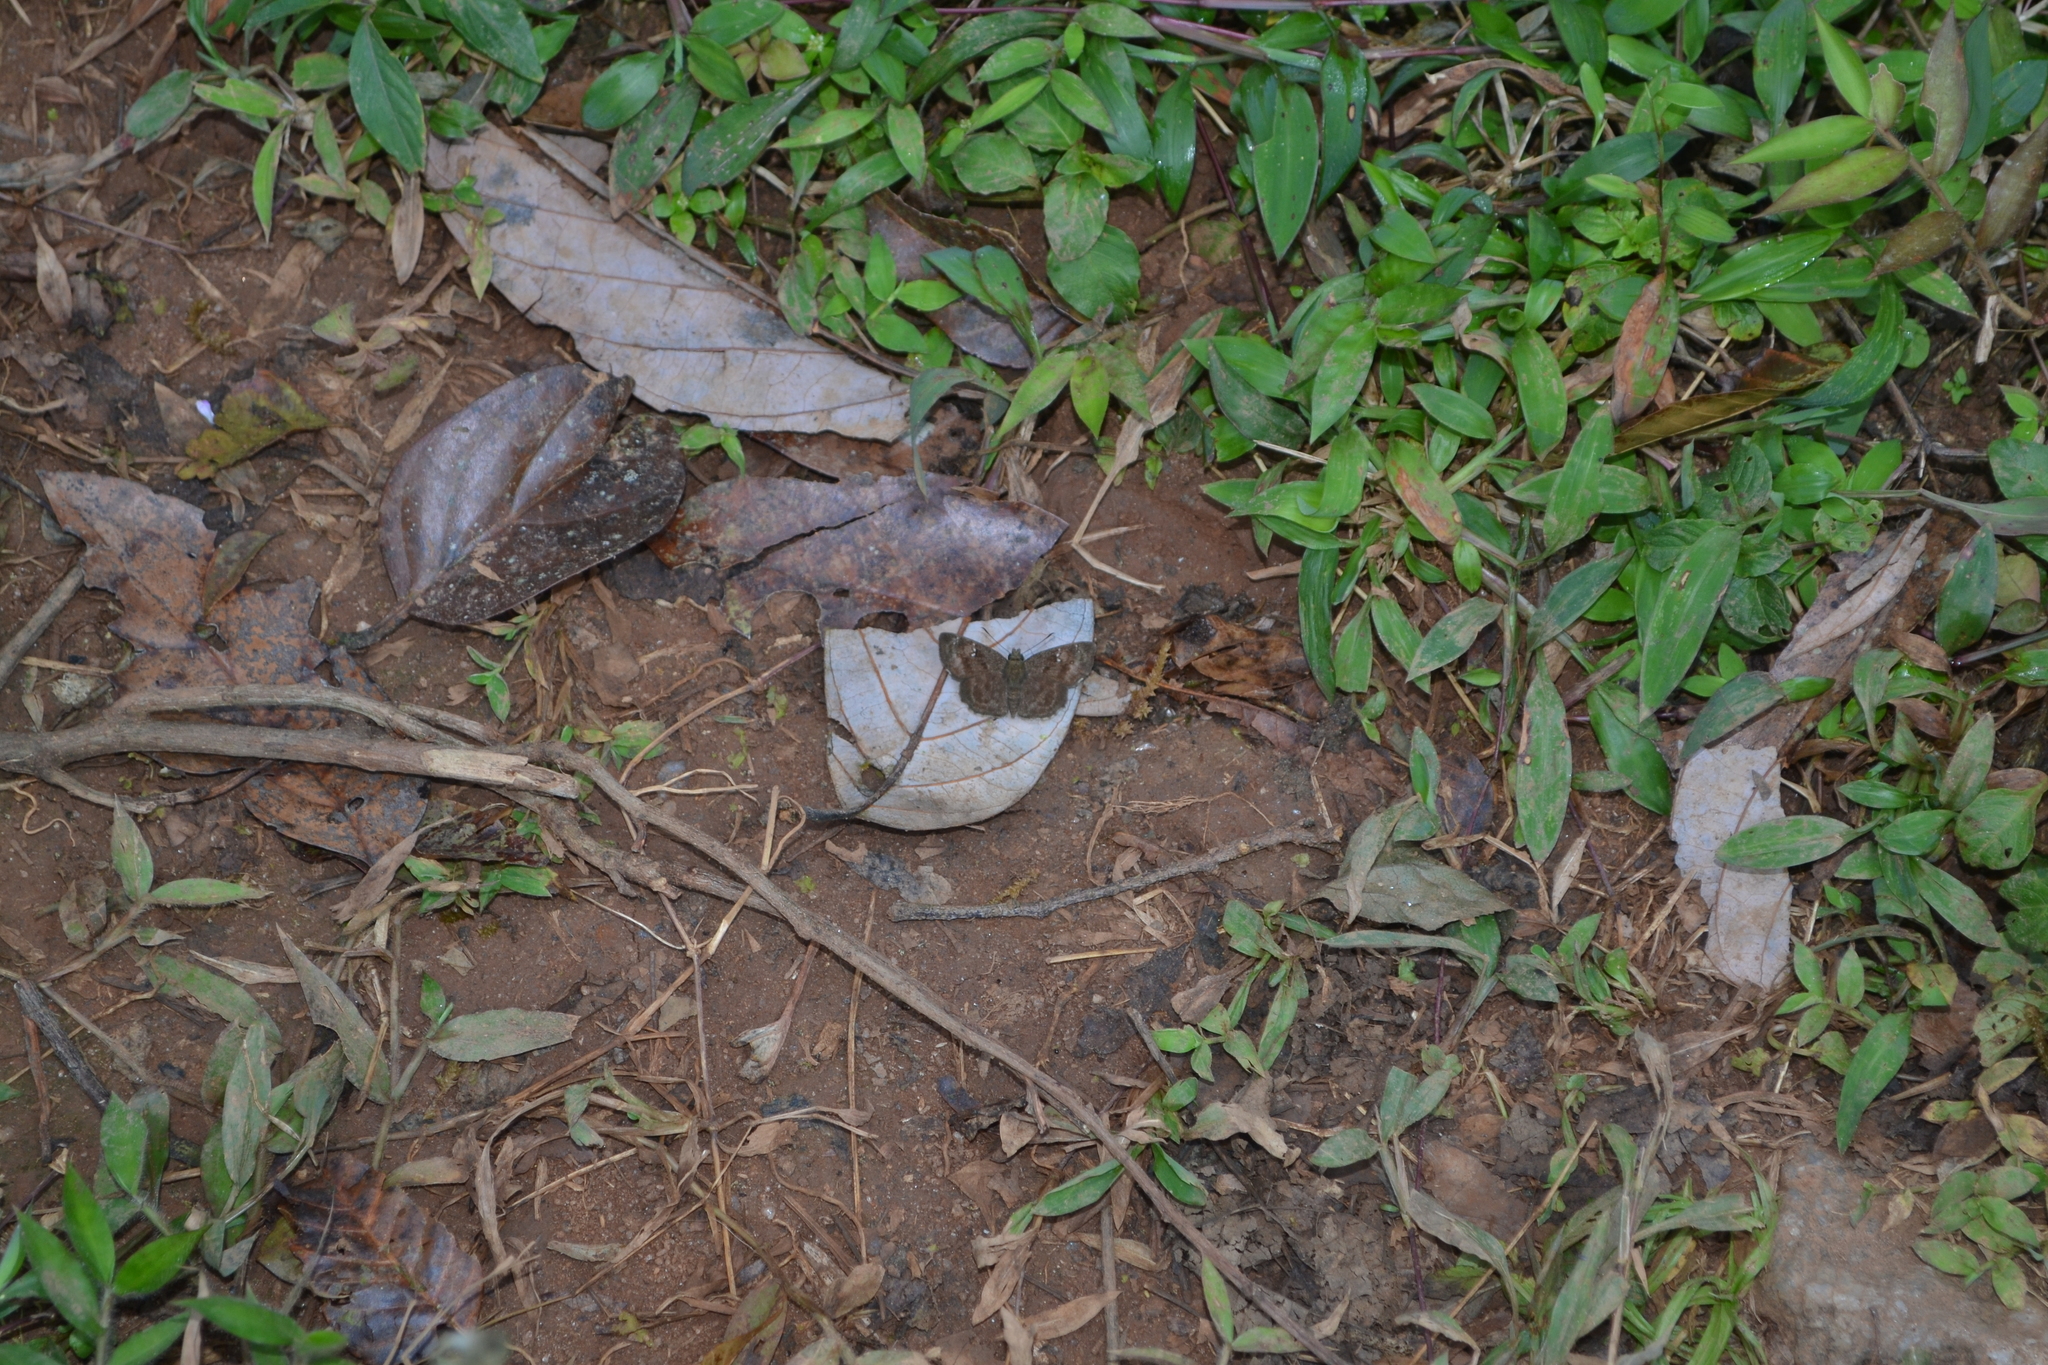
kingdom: Animalia
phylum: Arthropoda
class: Insecta
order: Lepidoptera
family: Hesperiidae
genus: Sarangesa
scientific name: Sarangesa dasahara
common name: Common small flat
